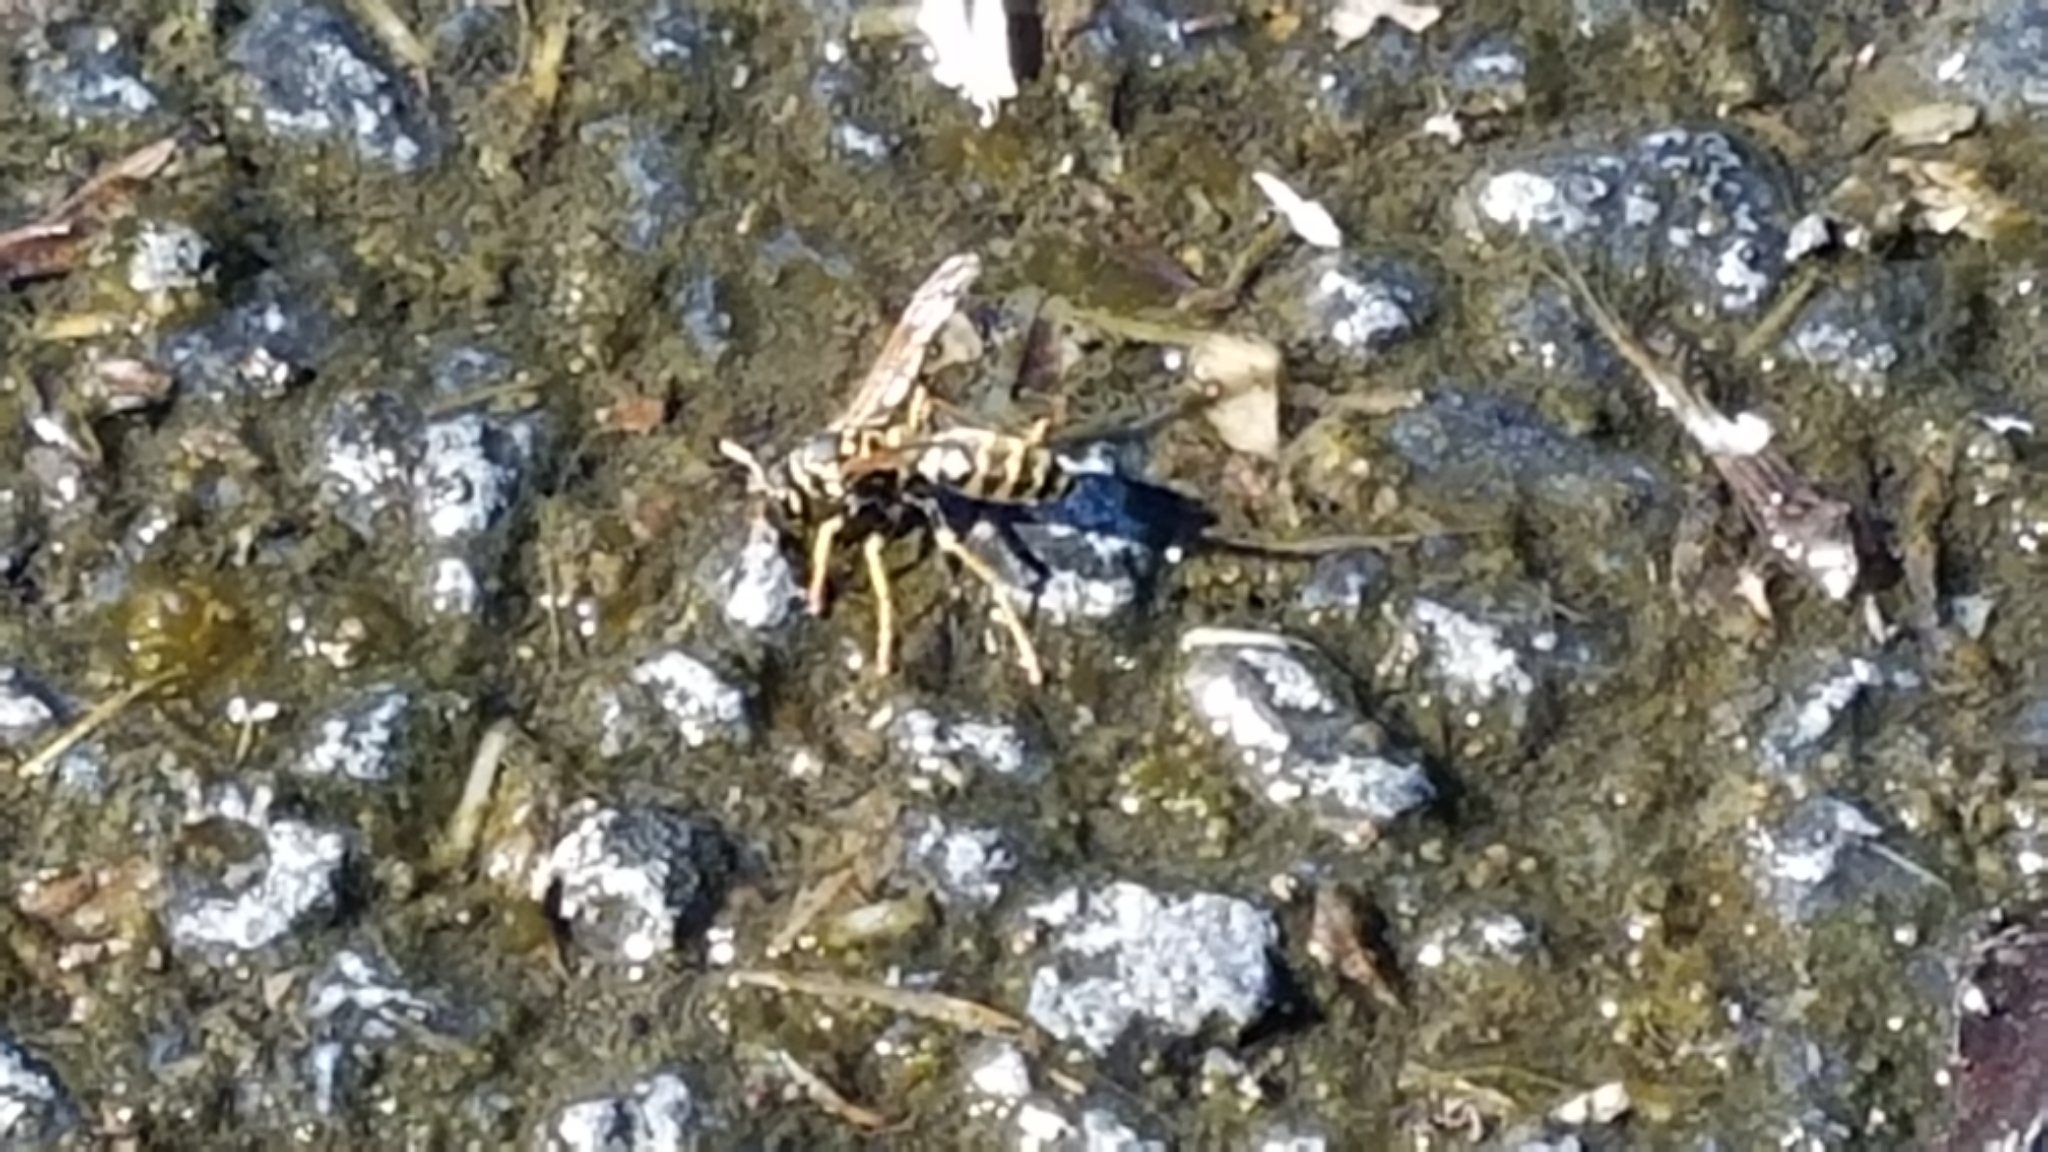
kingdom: Animalia
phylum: Arthropoda
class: Insecta
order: Hymenoptera
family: Eumenidae
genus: Polistes
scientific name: Polistes dominula
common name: Paper wasp
